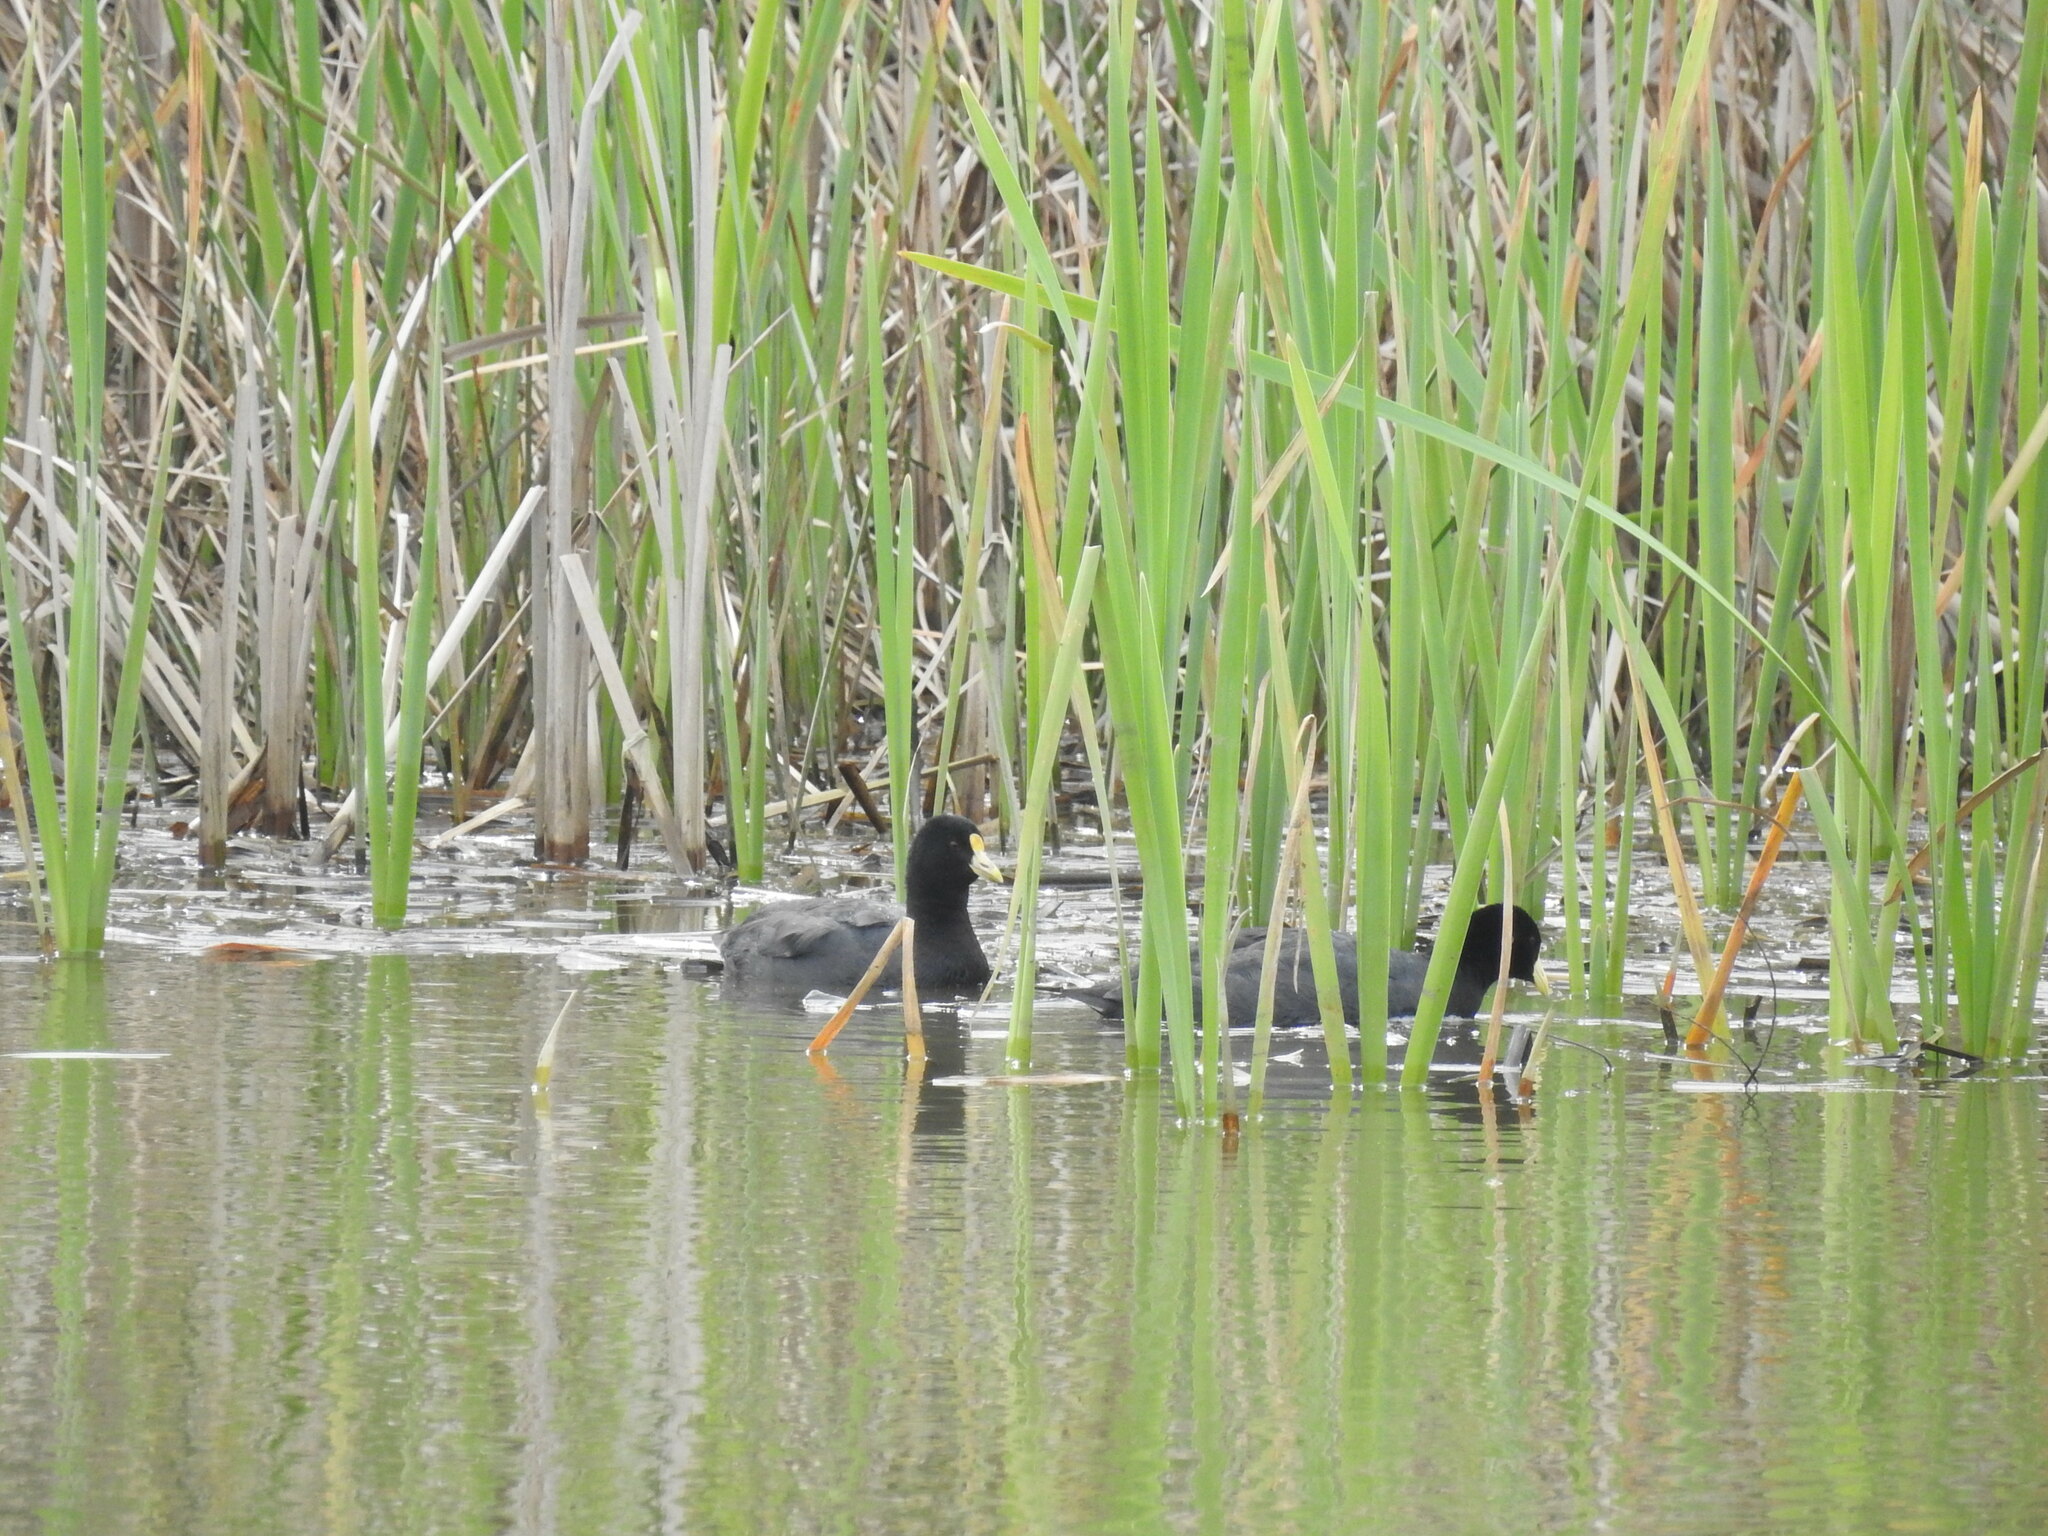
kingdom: Animalia
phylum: Chordata
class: Aves
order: Gruiformes
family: Rallidae
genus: Fulica
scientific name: Fulica leucoptera
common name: White-winged coot
